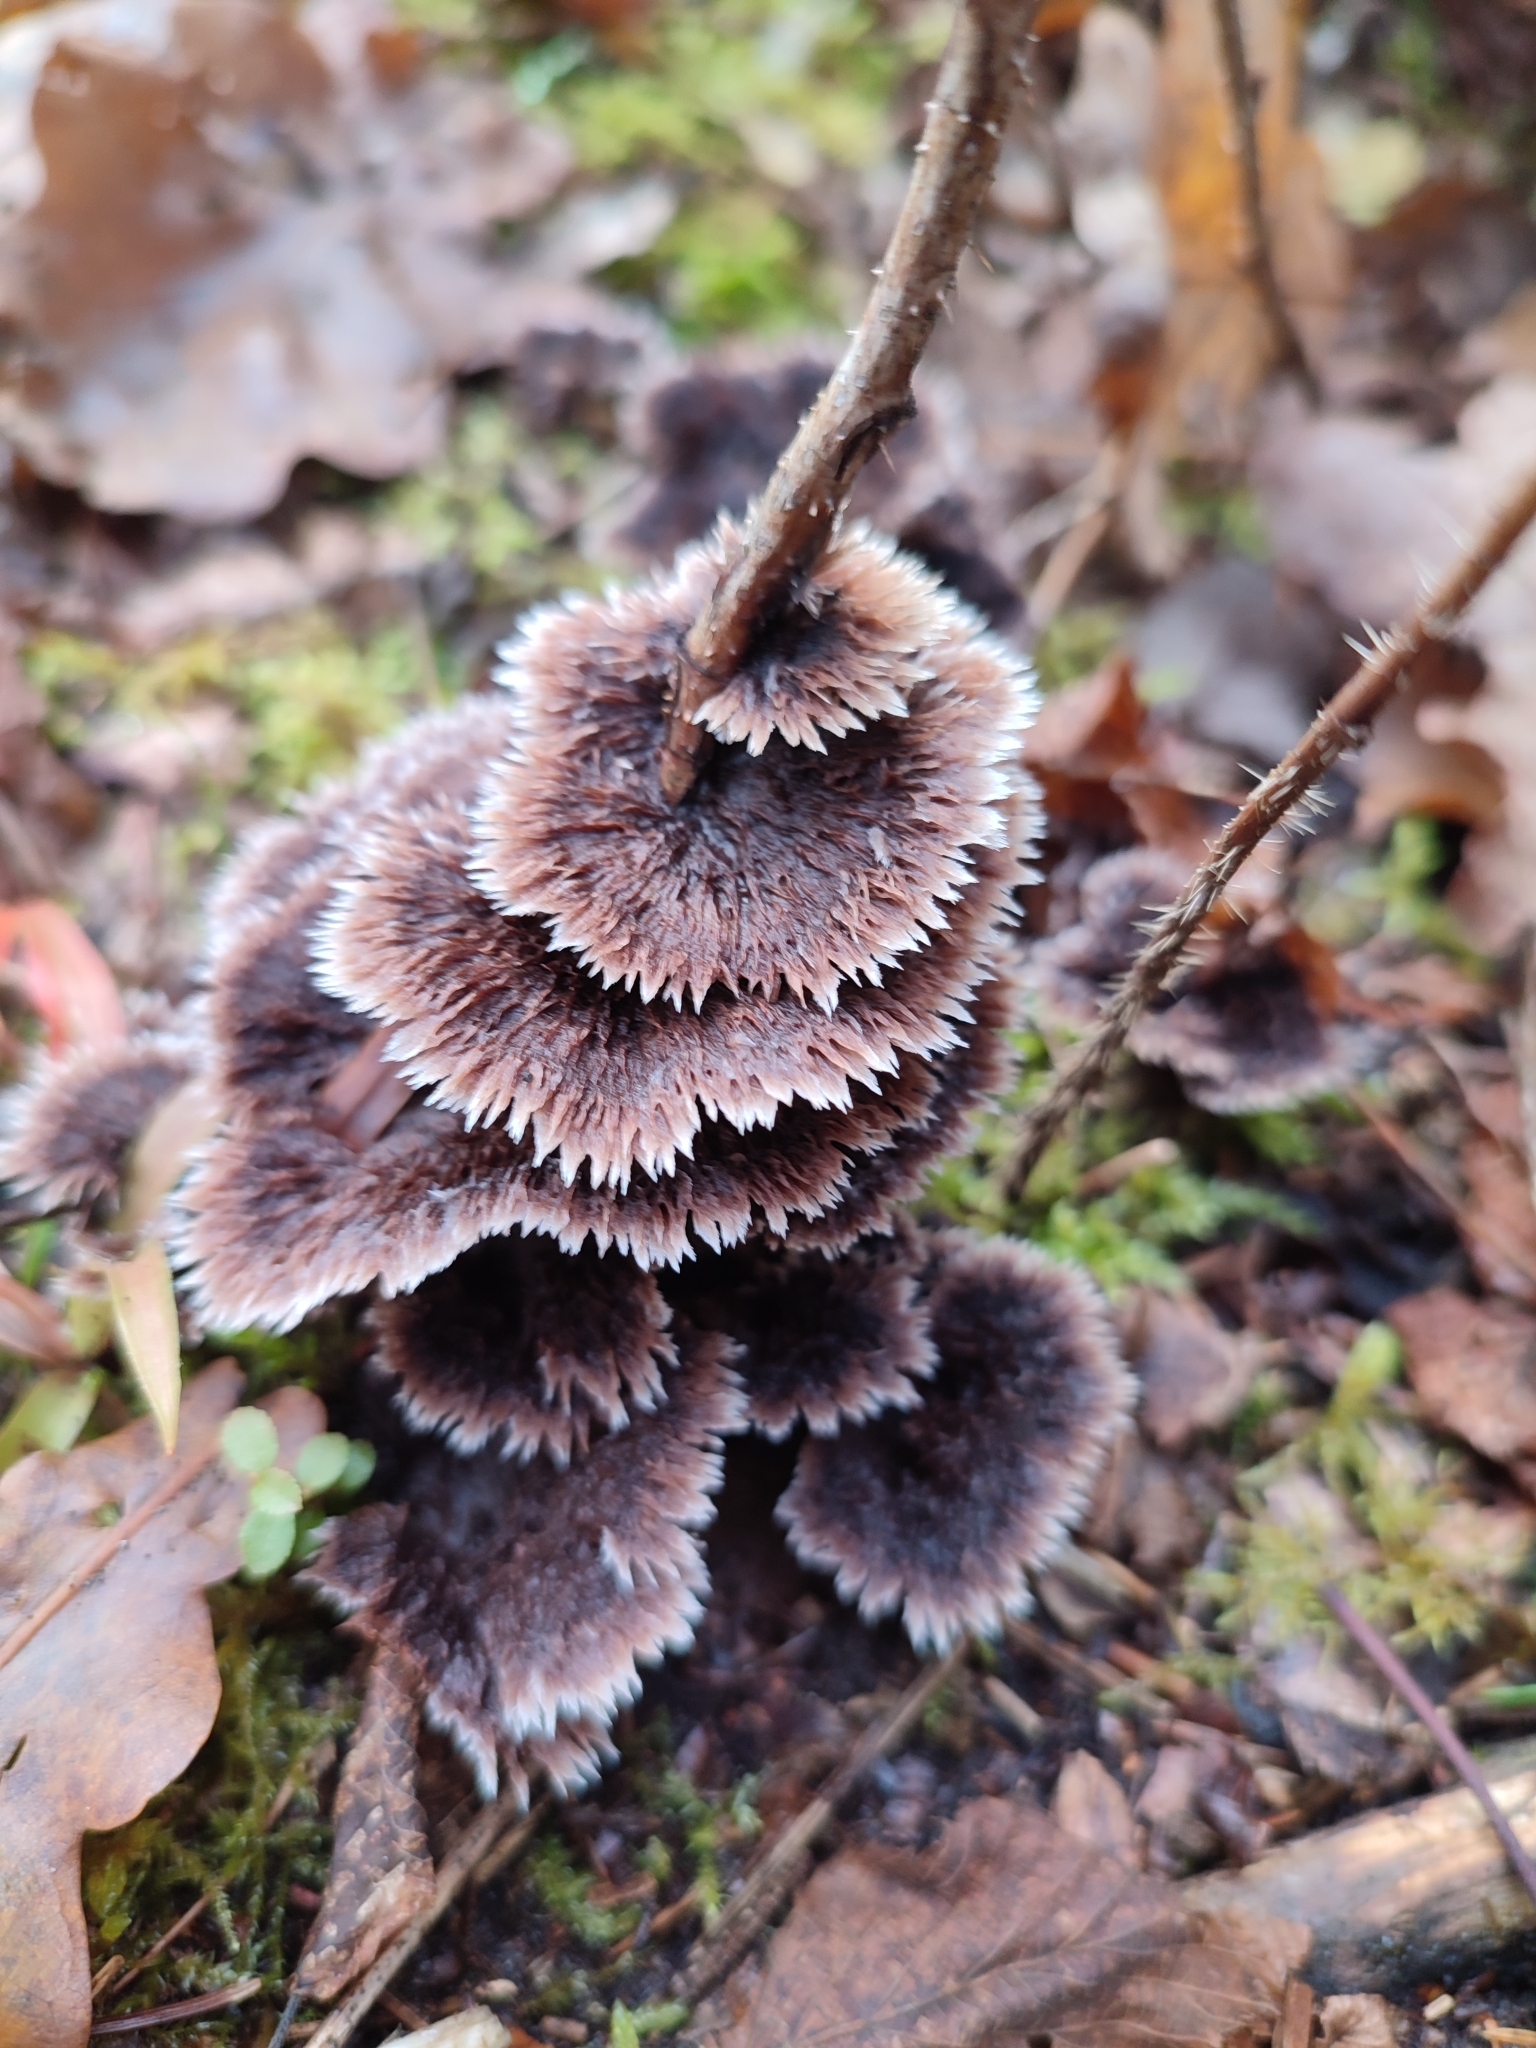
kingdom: Fungi
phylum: Basidiomycota
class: Agaricomycetes
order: Thelephorales
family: Thelephoraceae
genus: Thelephora
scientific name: Thelephora terrestris
